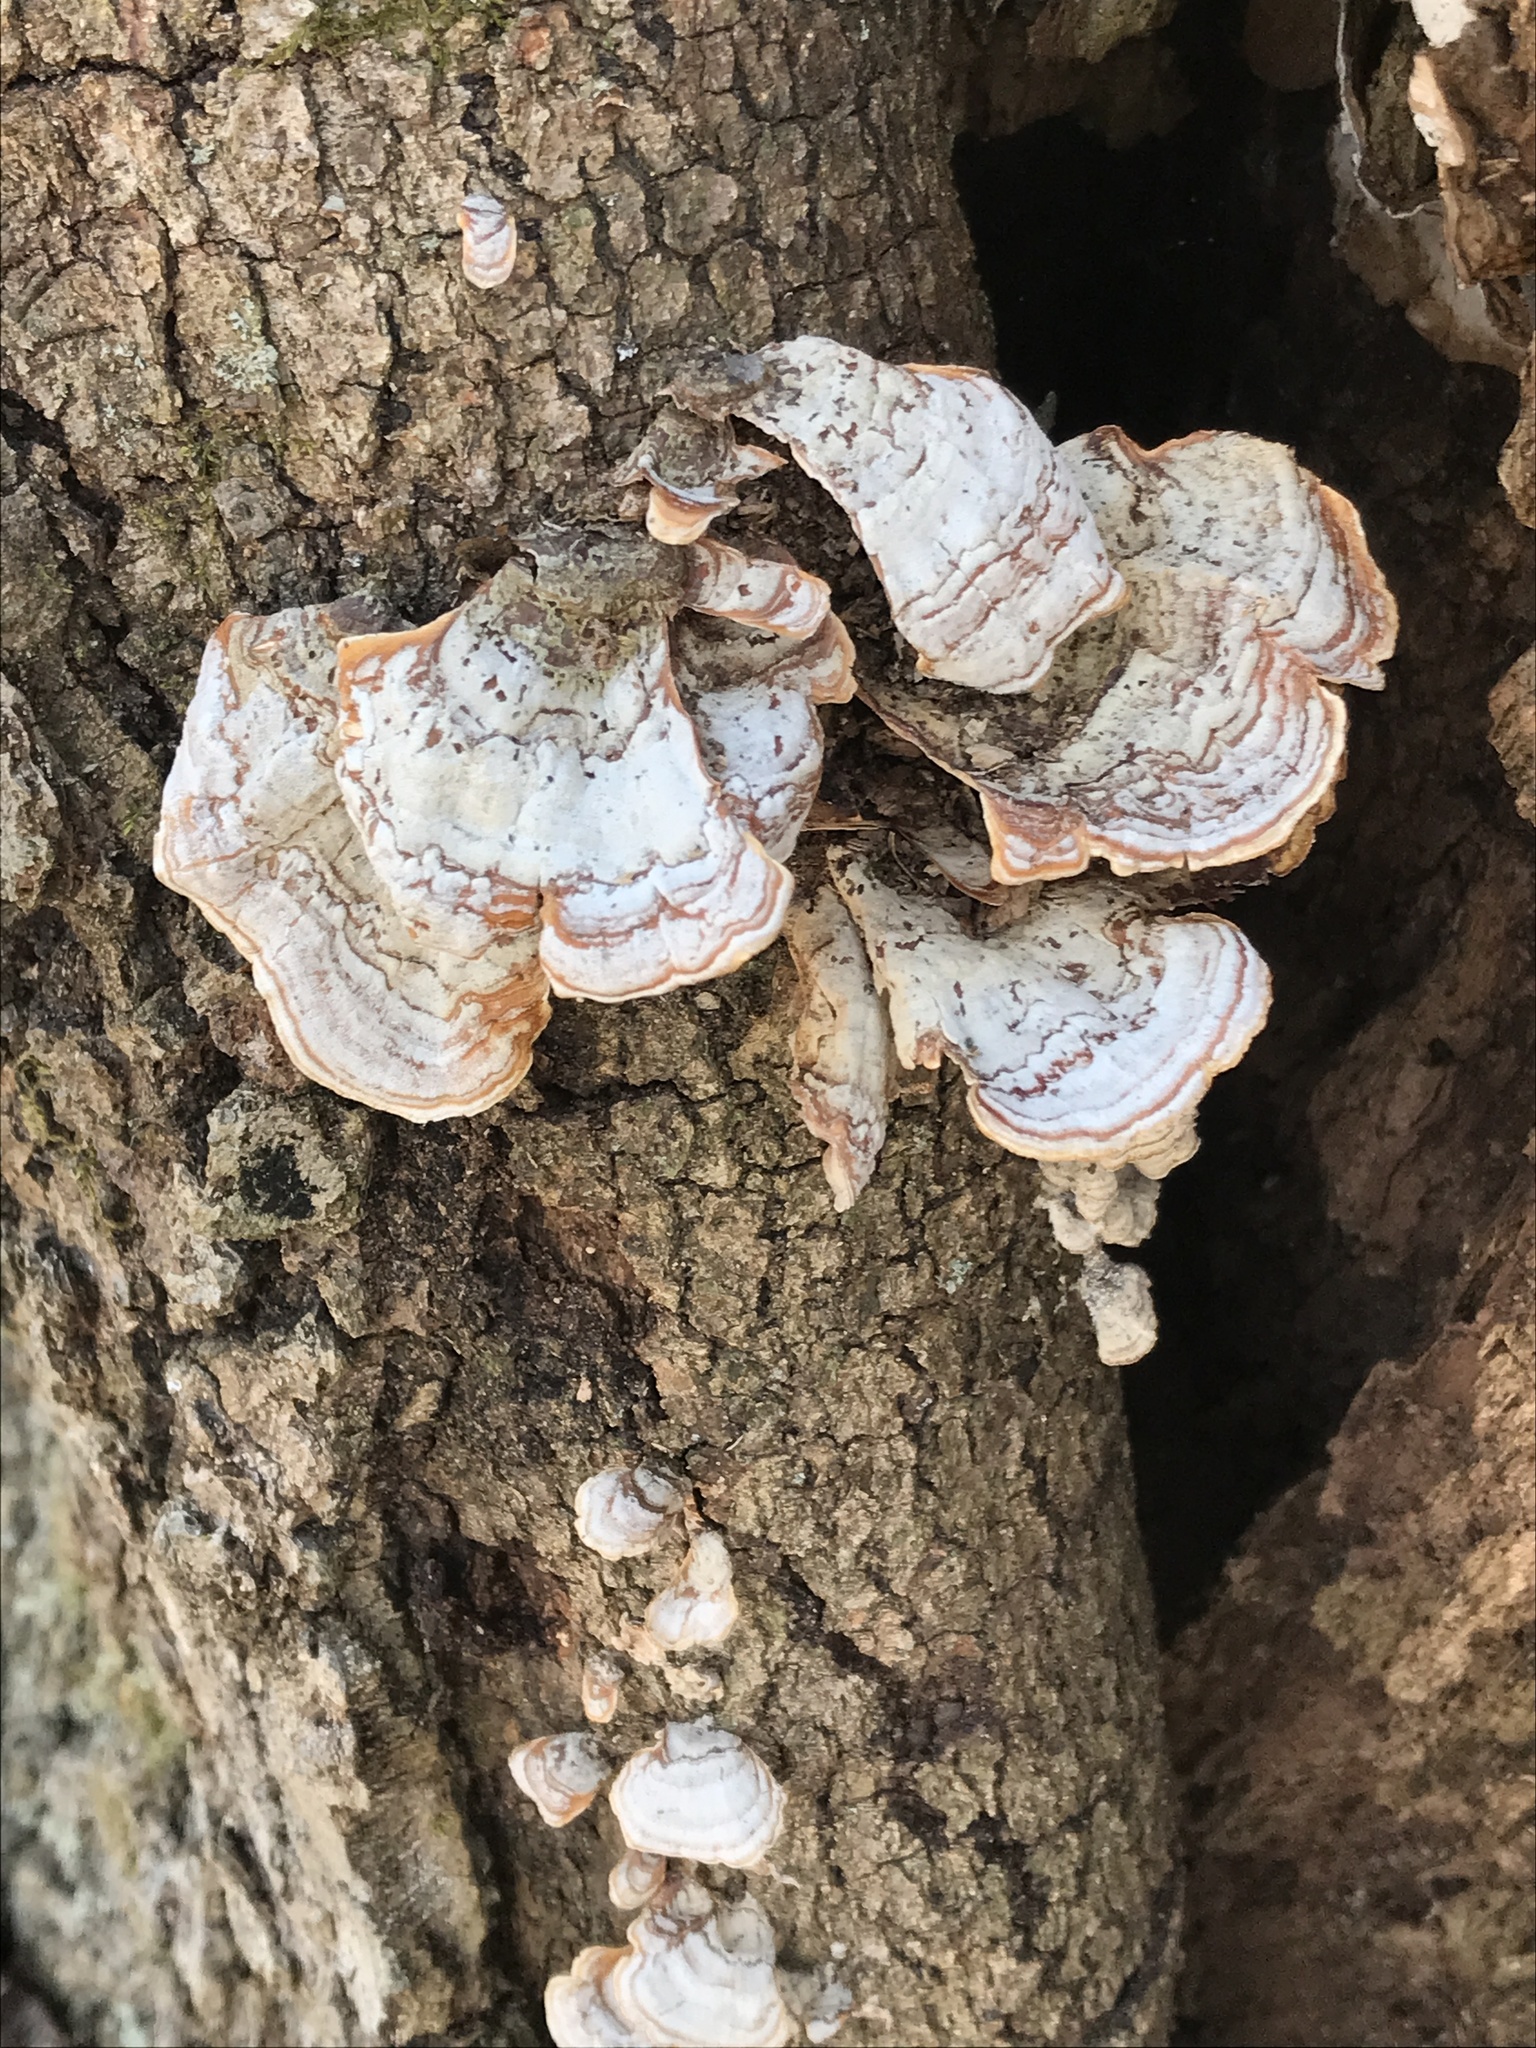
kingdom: Fungi
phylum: Basidiomycota
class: Agaricomycetes
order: Russulales
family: Stereaceae
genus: Stereum
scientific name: Stereum lobatum
